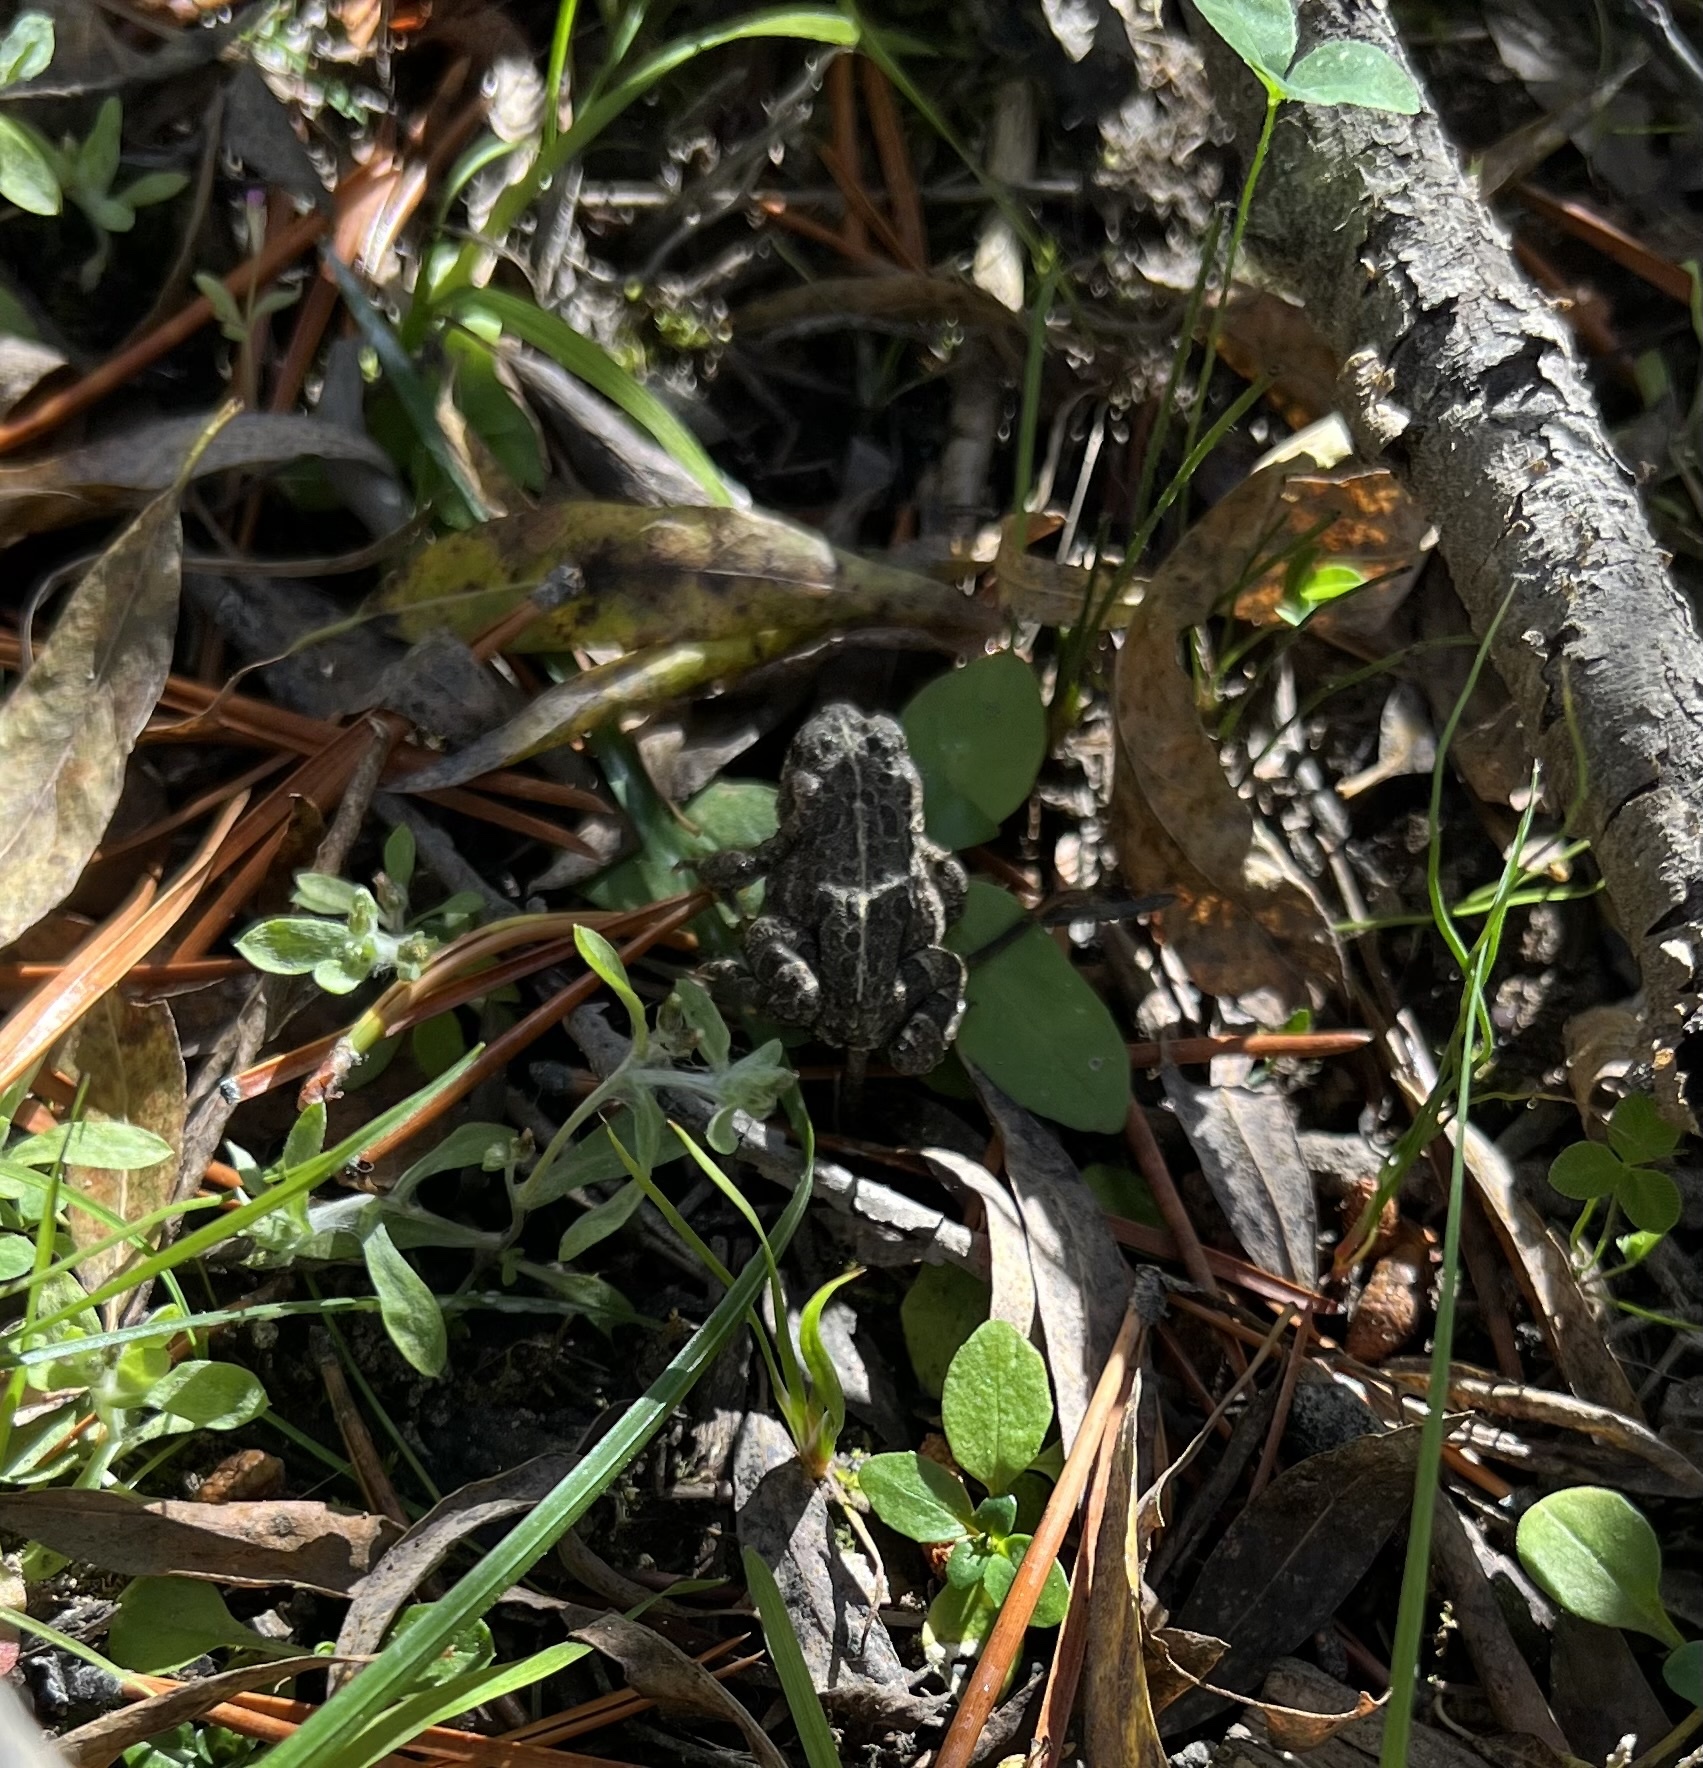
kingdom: Animalia
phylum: Chordata
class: Amphibia
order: Anura
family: Bufonidae
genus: Anaxyrus
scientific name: Anaxyrus boreas
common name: Western toad
